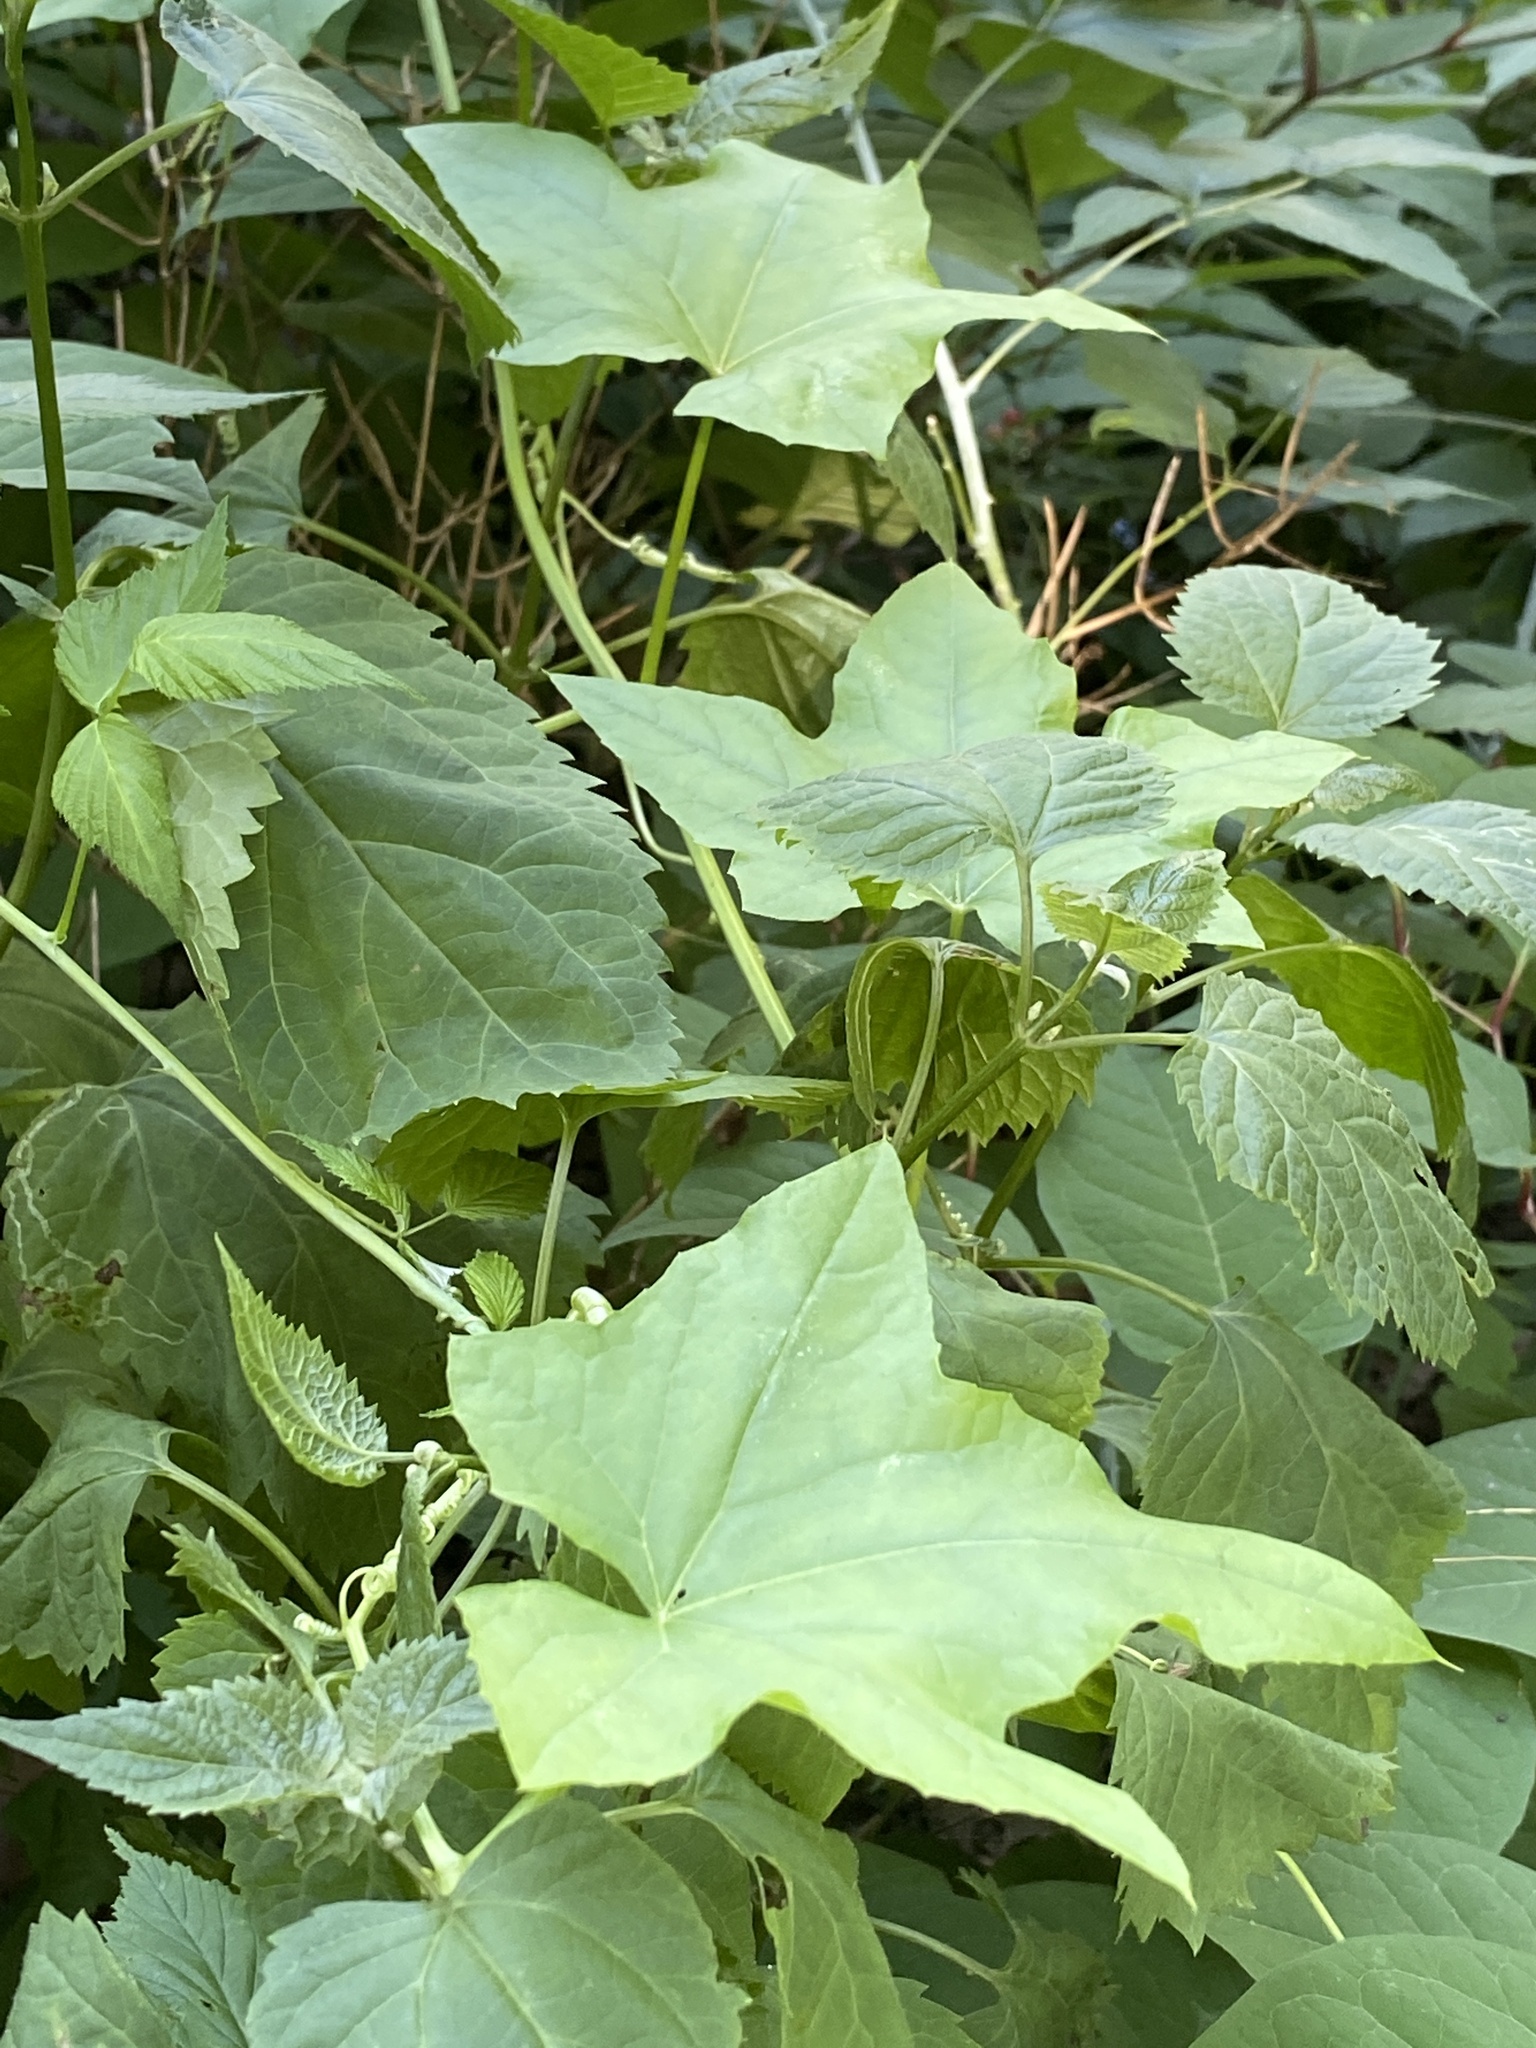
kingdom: Plantae
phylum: Tracheophyta
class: Magnoliopsida
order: Cucurbitales
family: Cucurbitaceae
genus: Echinocystis
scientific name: Echinocystis lobata
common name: Wild cucumber
